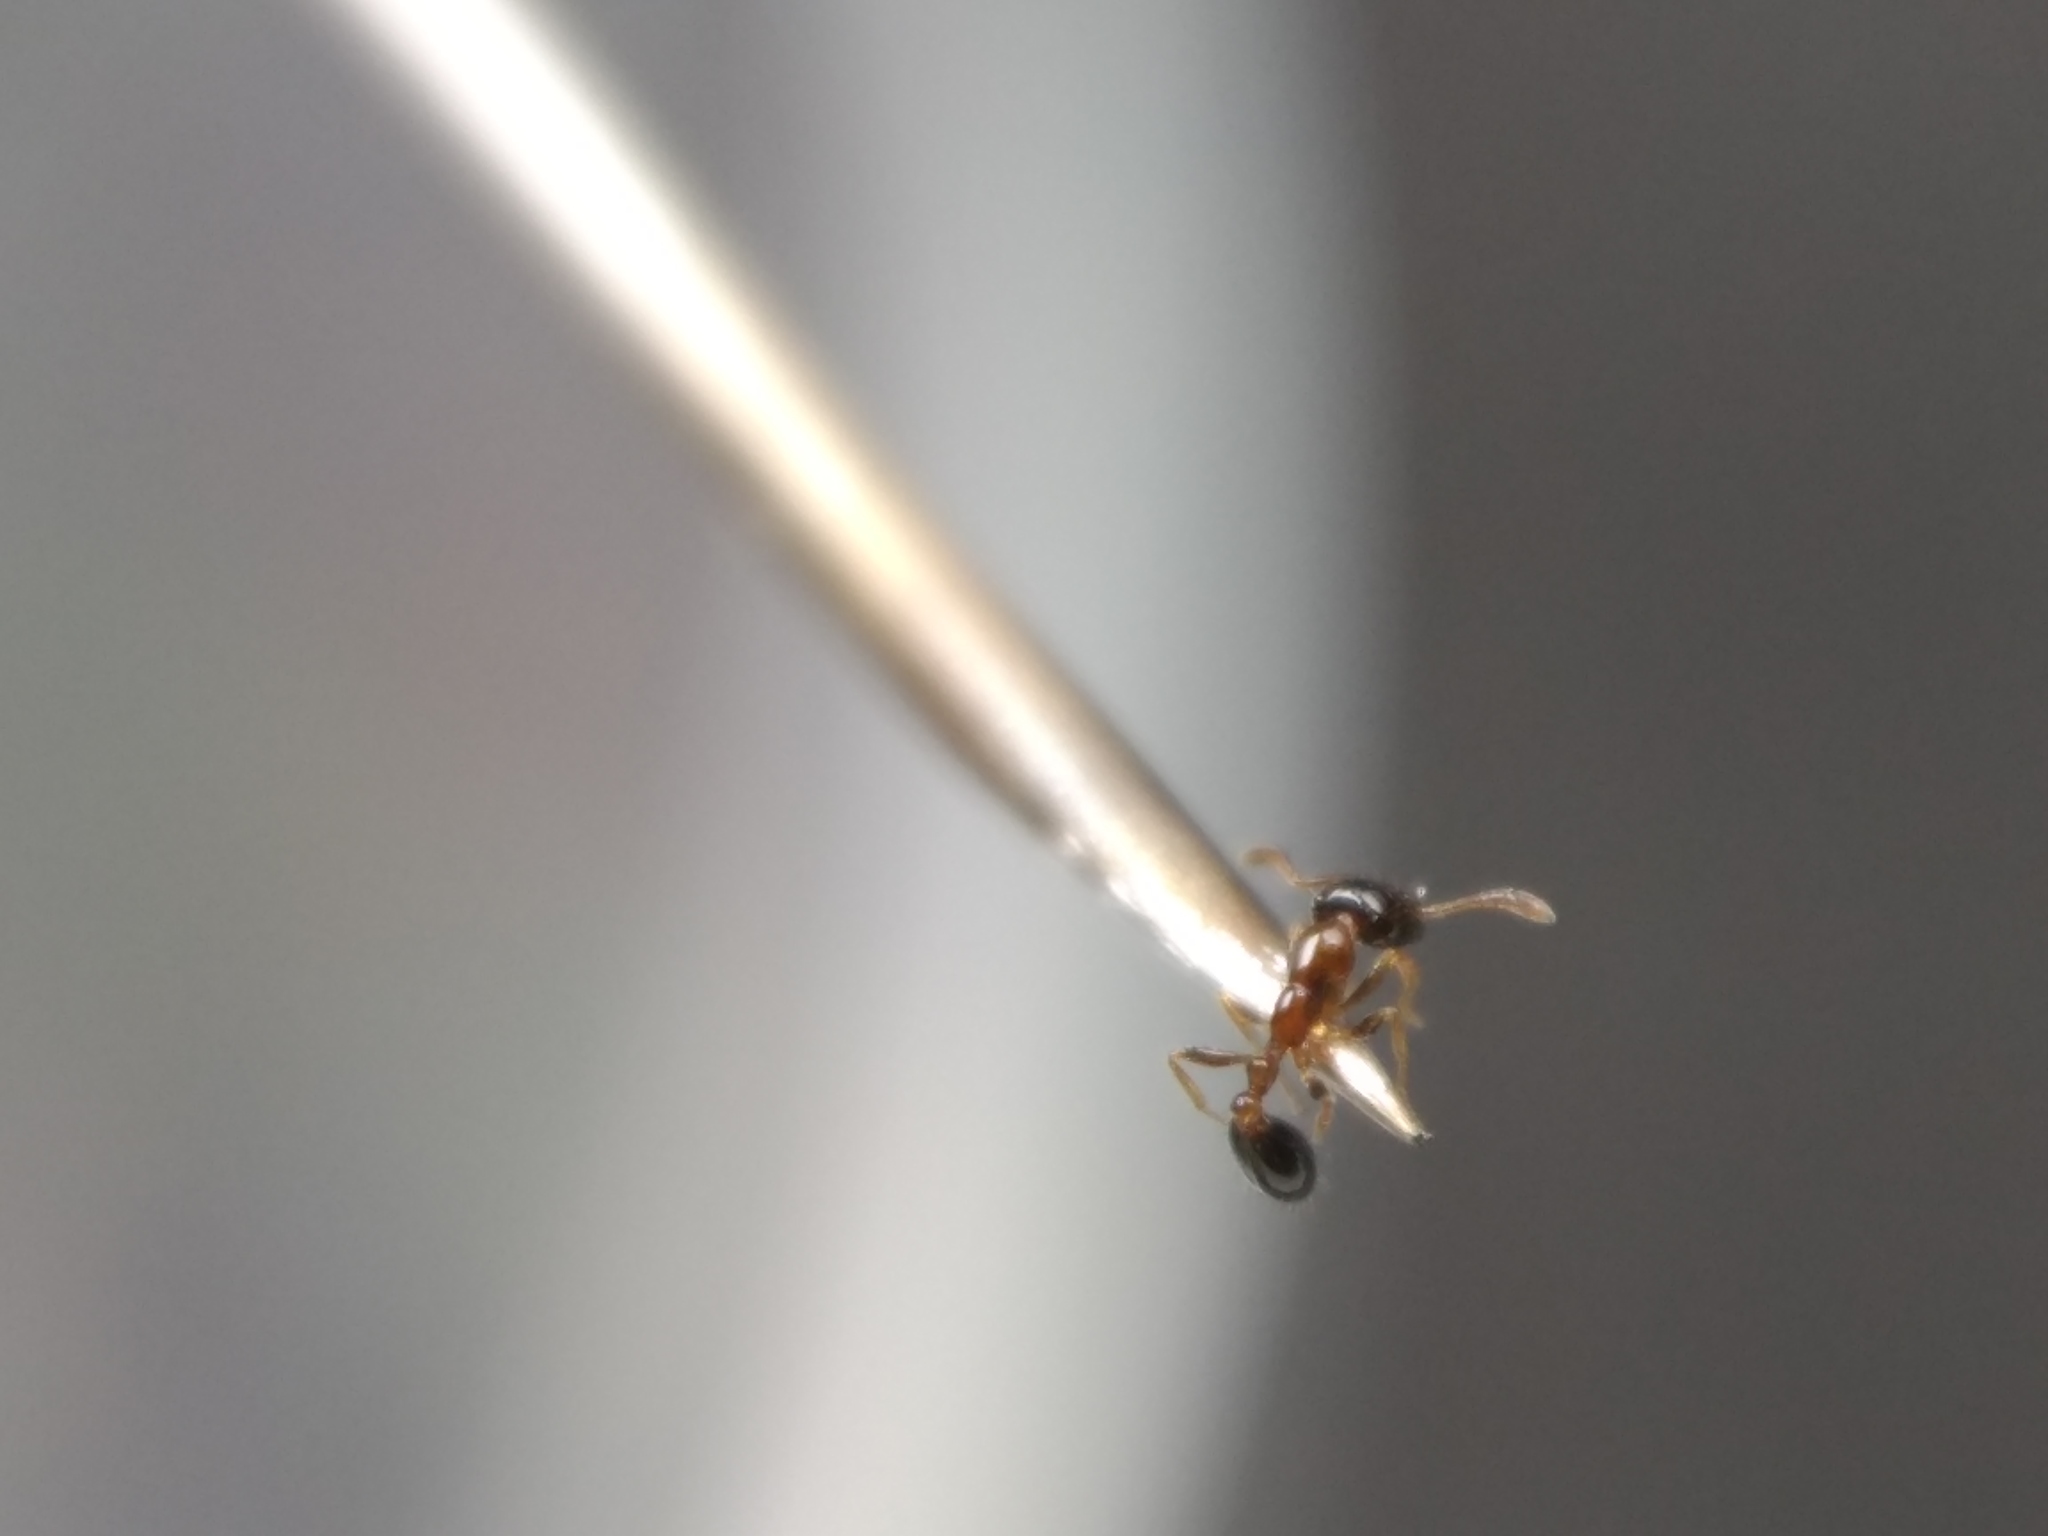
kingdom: Animalia
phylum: Arthropoda
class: Insecta
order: Hymenoptera
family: Formicidae
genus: Monomorium
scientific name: Monomorium floricola
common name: Bicolored trailing ant
